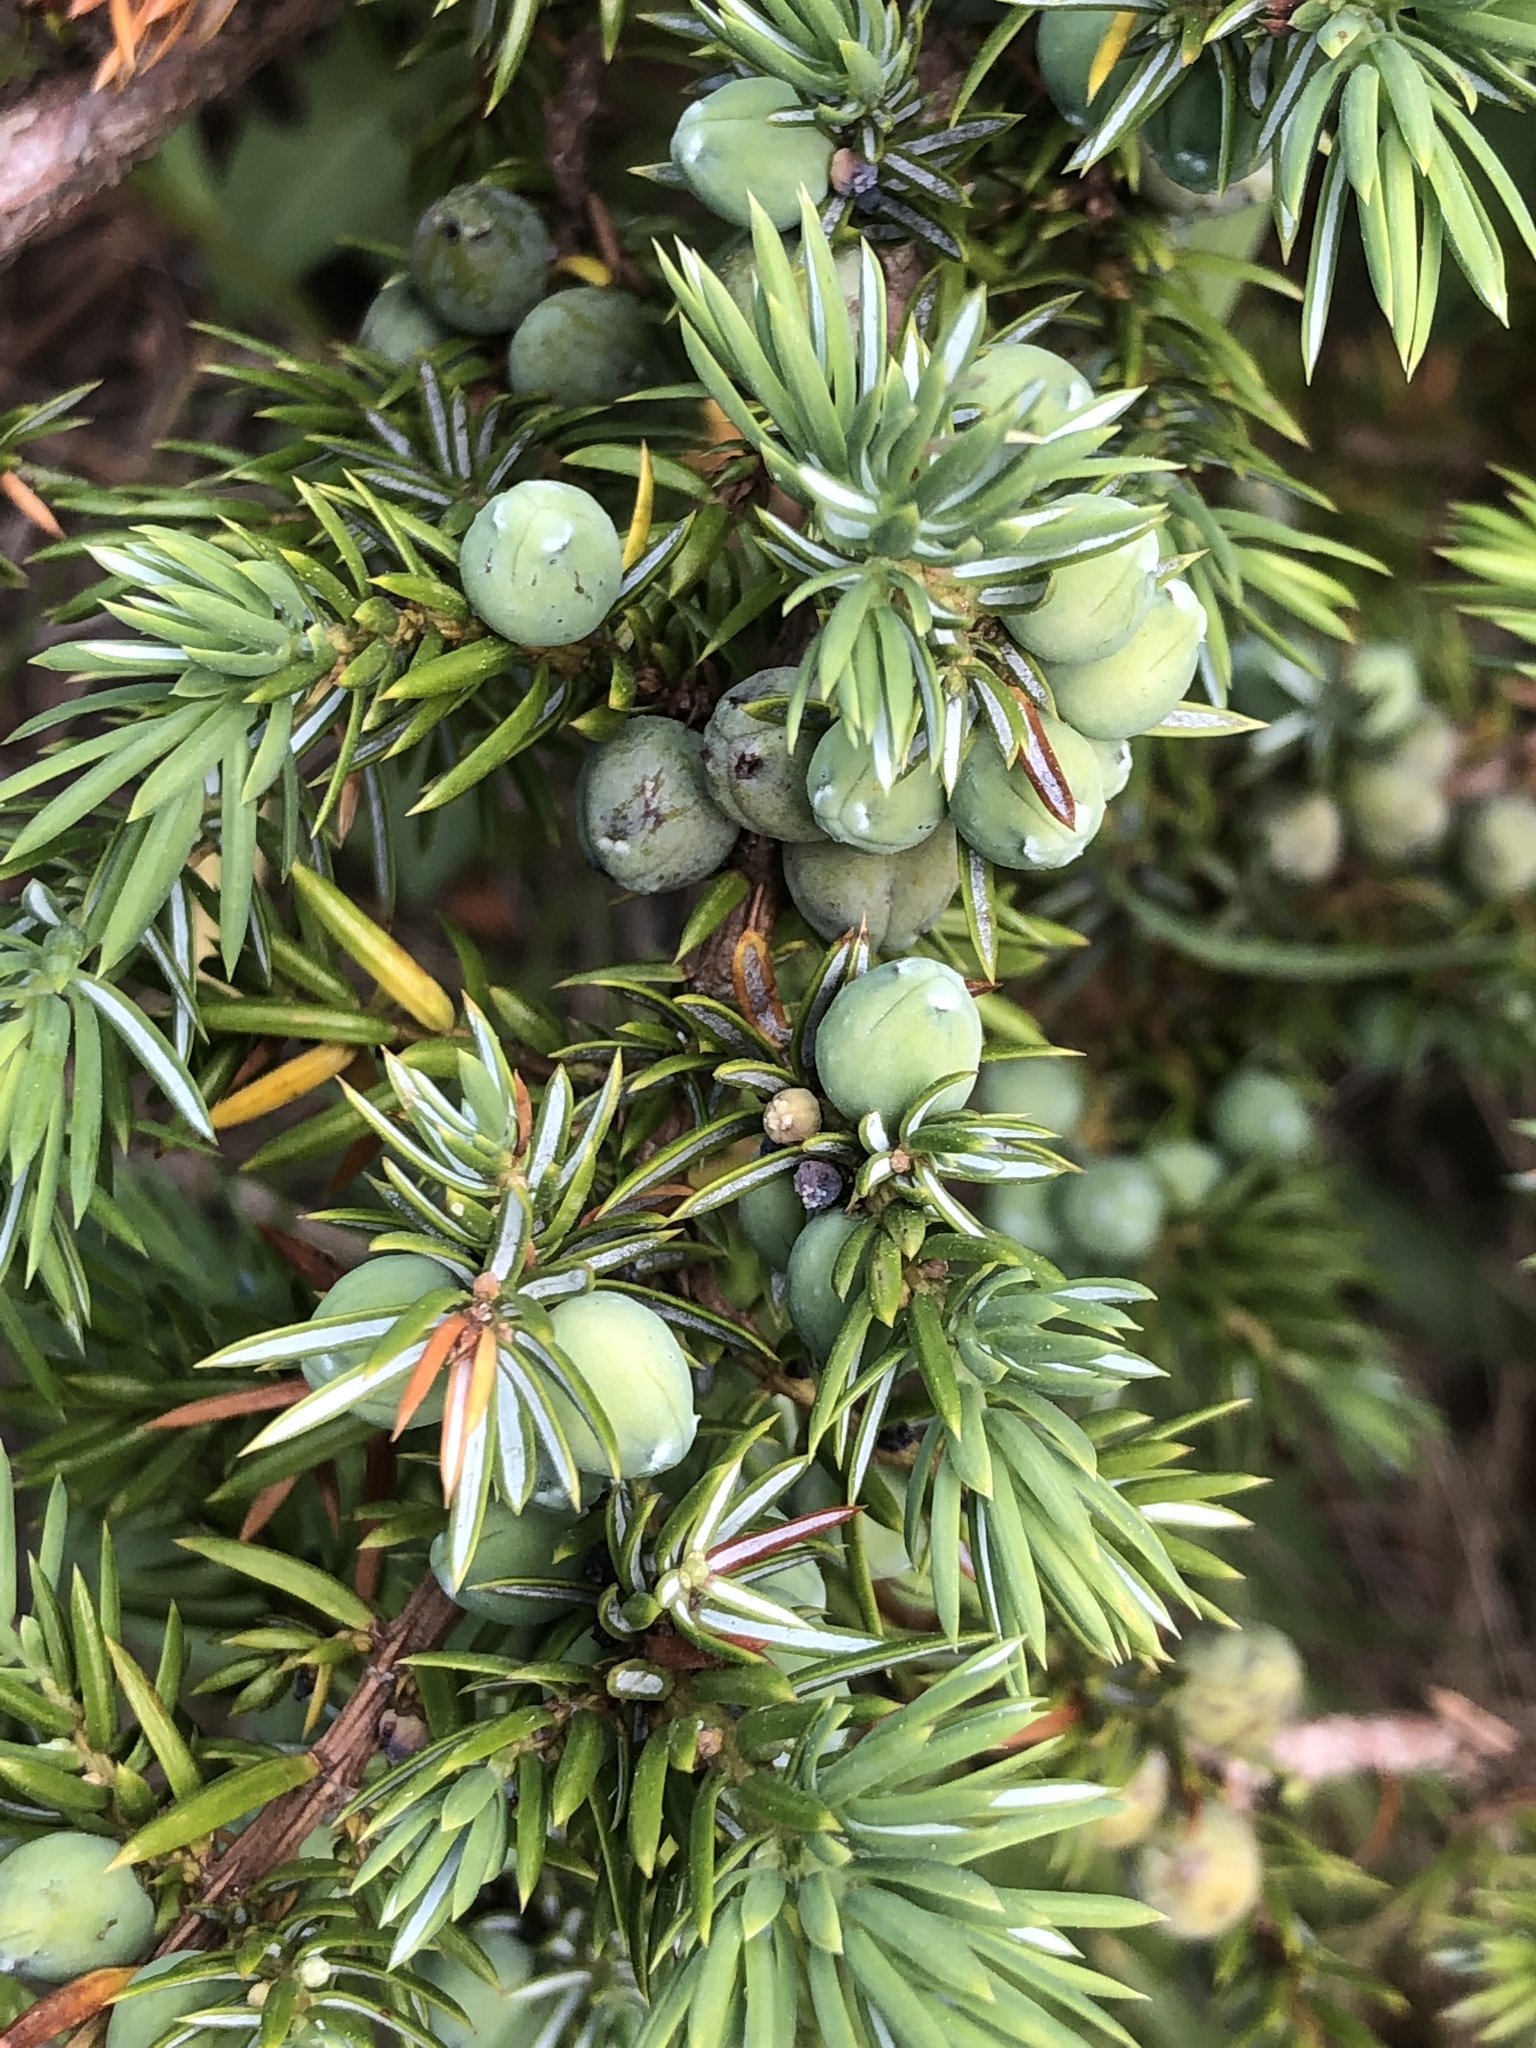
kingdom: Plantae
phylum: Tracheophyta
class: Pinopsida
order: Pinales
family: Cupressaceae
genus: Juniperus
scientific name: Juniperus communis
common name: Common juniper
